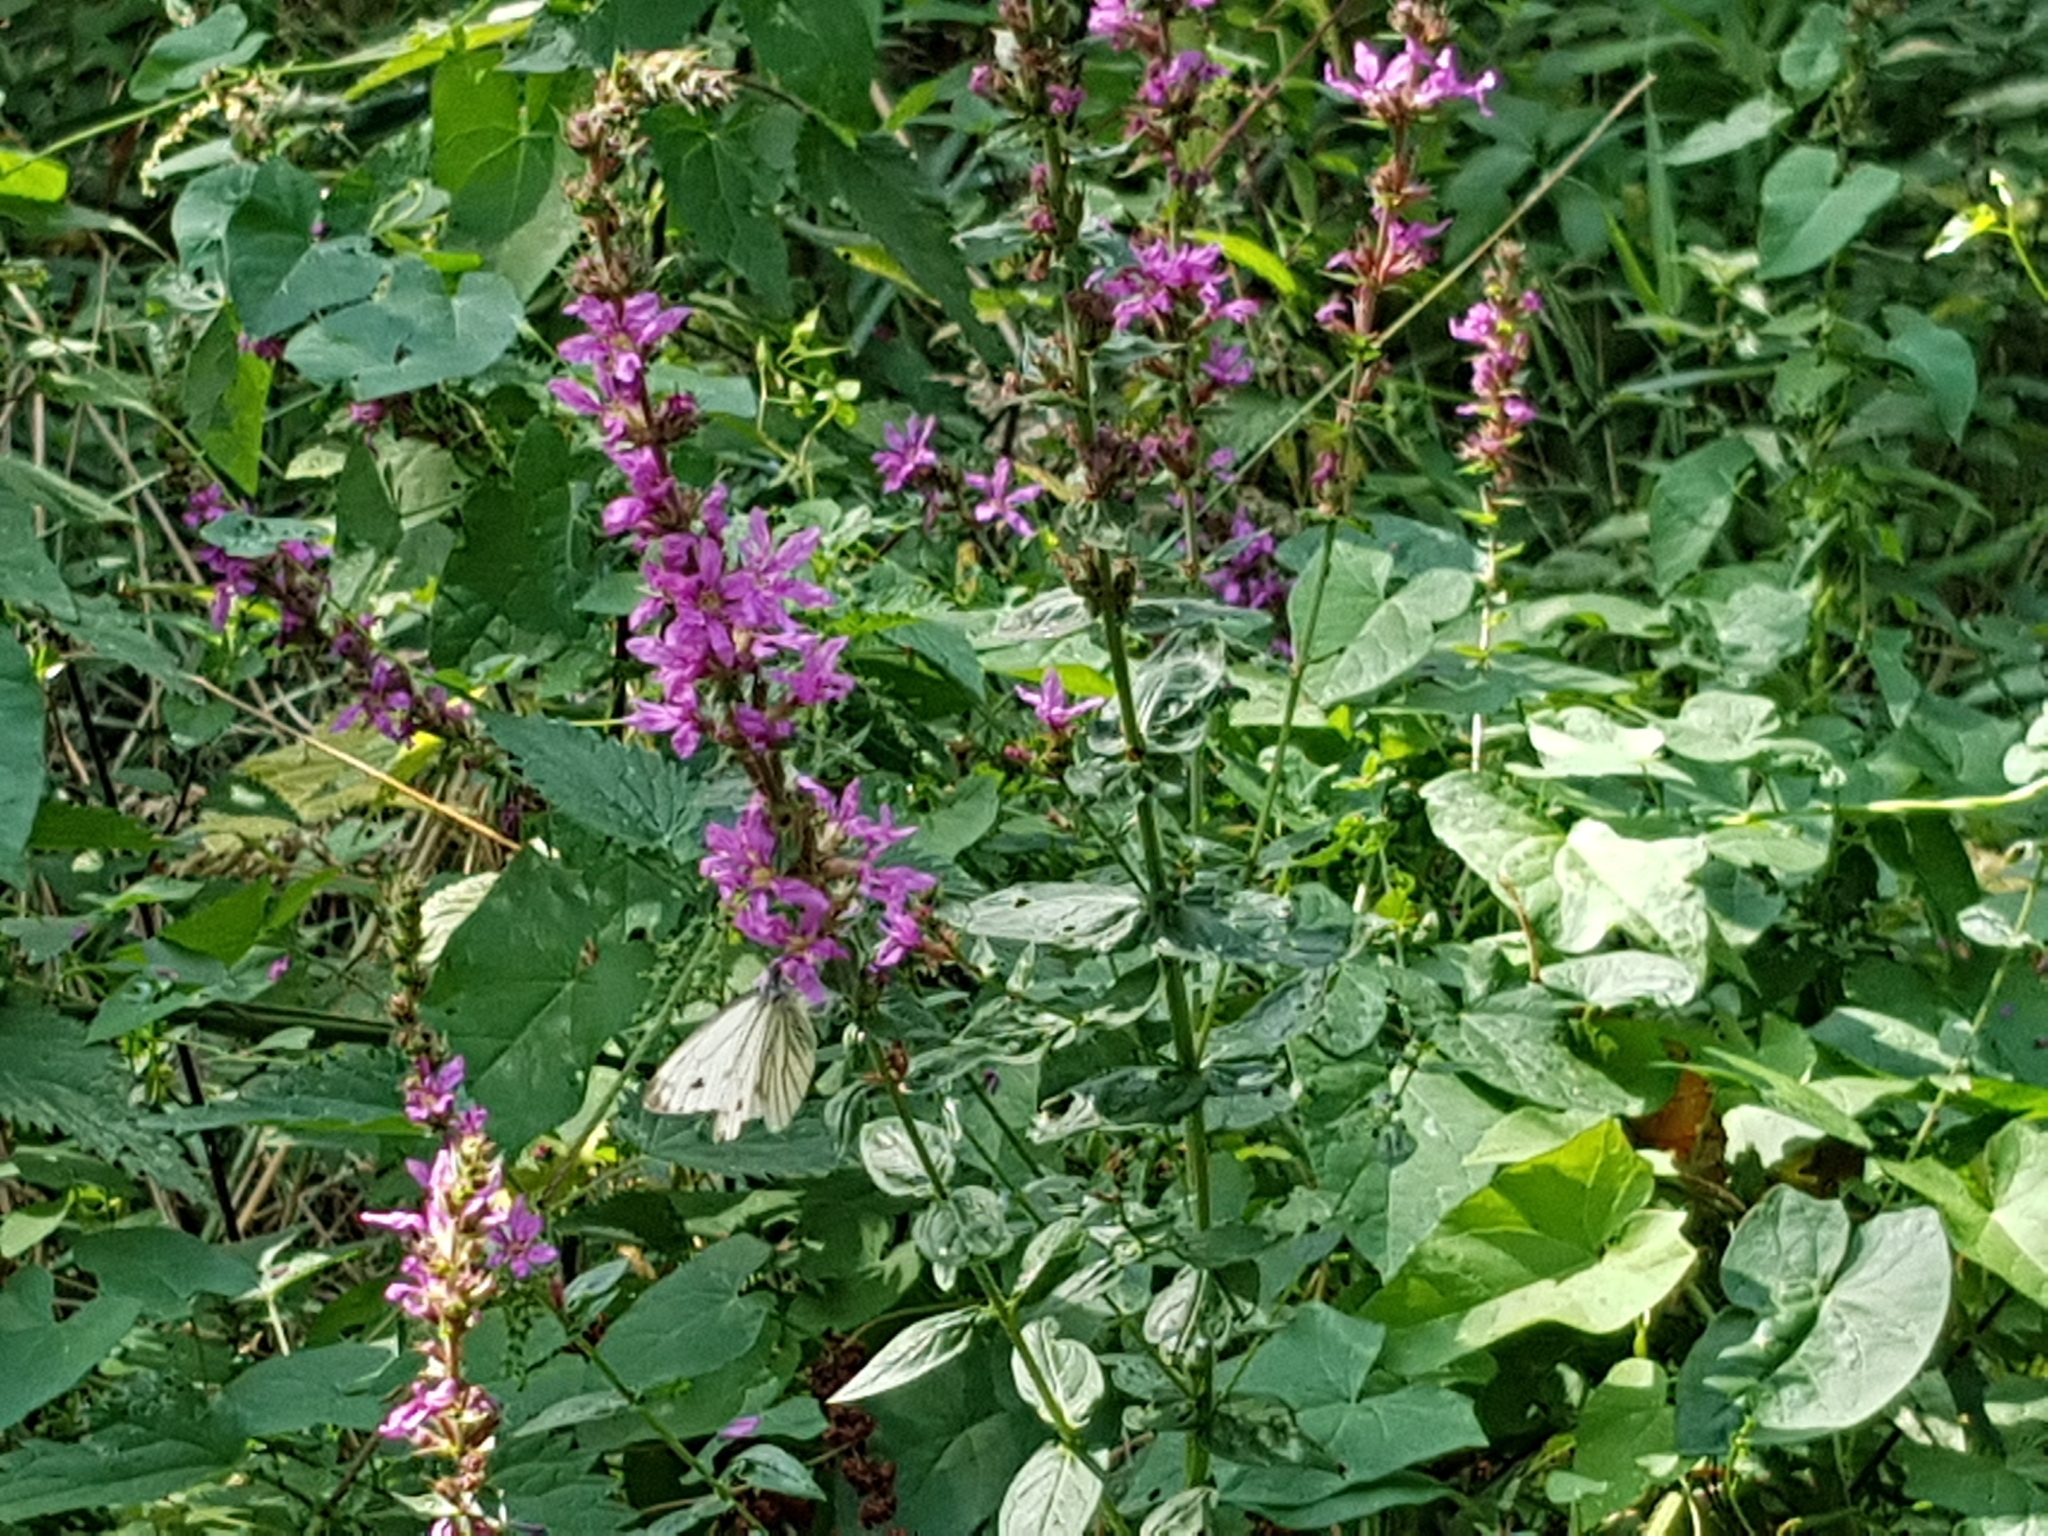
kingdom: Plantae
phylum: Tracheophyta
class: Magnoliopsida
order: Myrtales
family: Lythraceae
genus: Lythrum
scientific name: Lythrum salicaria
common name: Purple loosestrife
